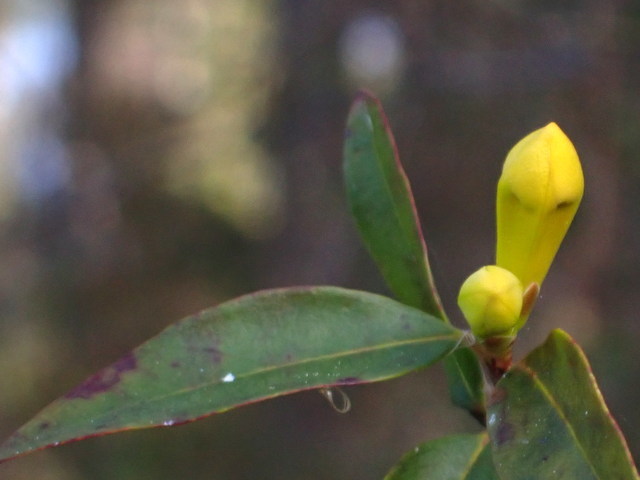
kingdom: Plantae
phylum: Tracheophyta
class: Magnoliopsida
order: Gentianales
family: Gelsemiaceae
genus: Gelsemium
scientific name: Gelsemium sempervirens
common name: Carolina-jasmine
